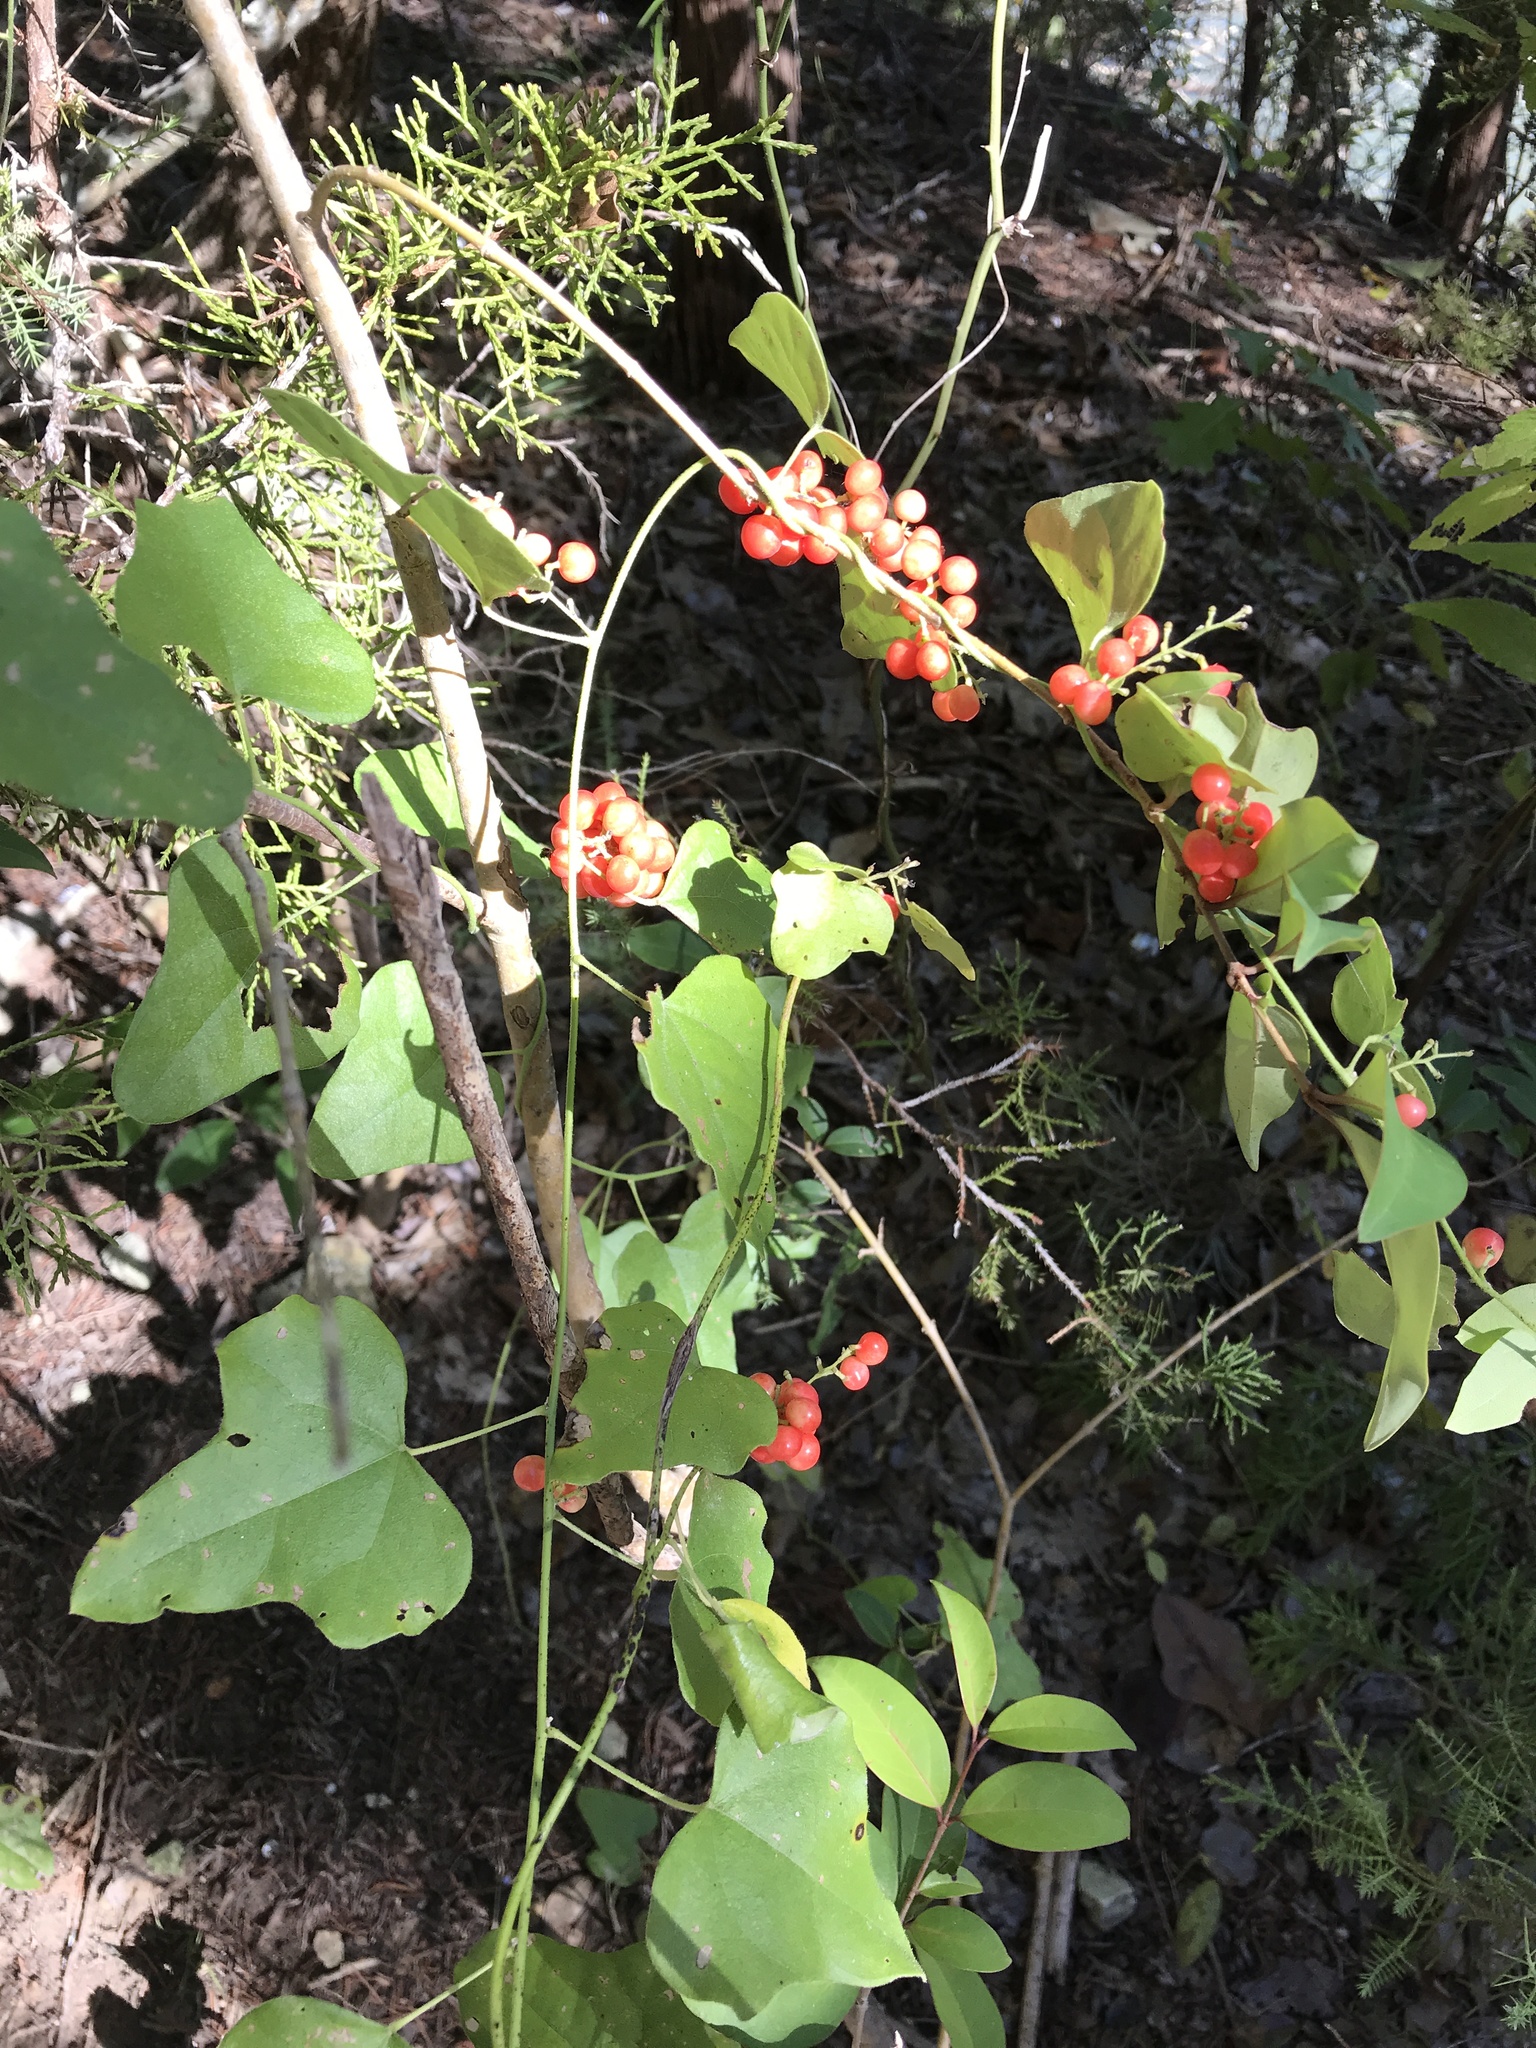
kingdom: Plantae
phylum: Tracheophyta
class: Magnoliopsida
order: Ranunculales
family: Menispermaceae
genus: Cocculus
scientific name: Cocculus carolinus
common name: Carolina moonseed
